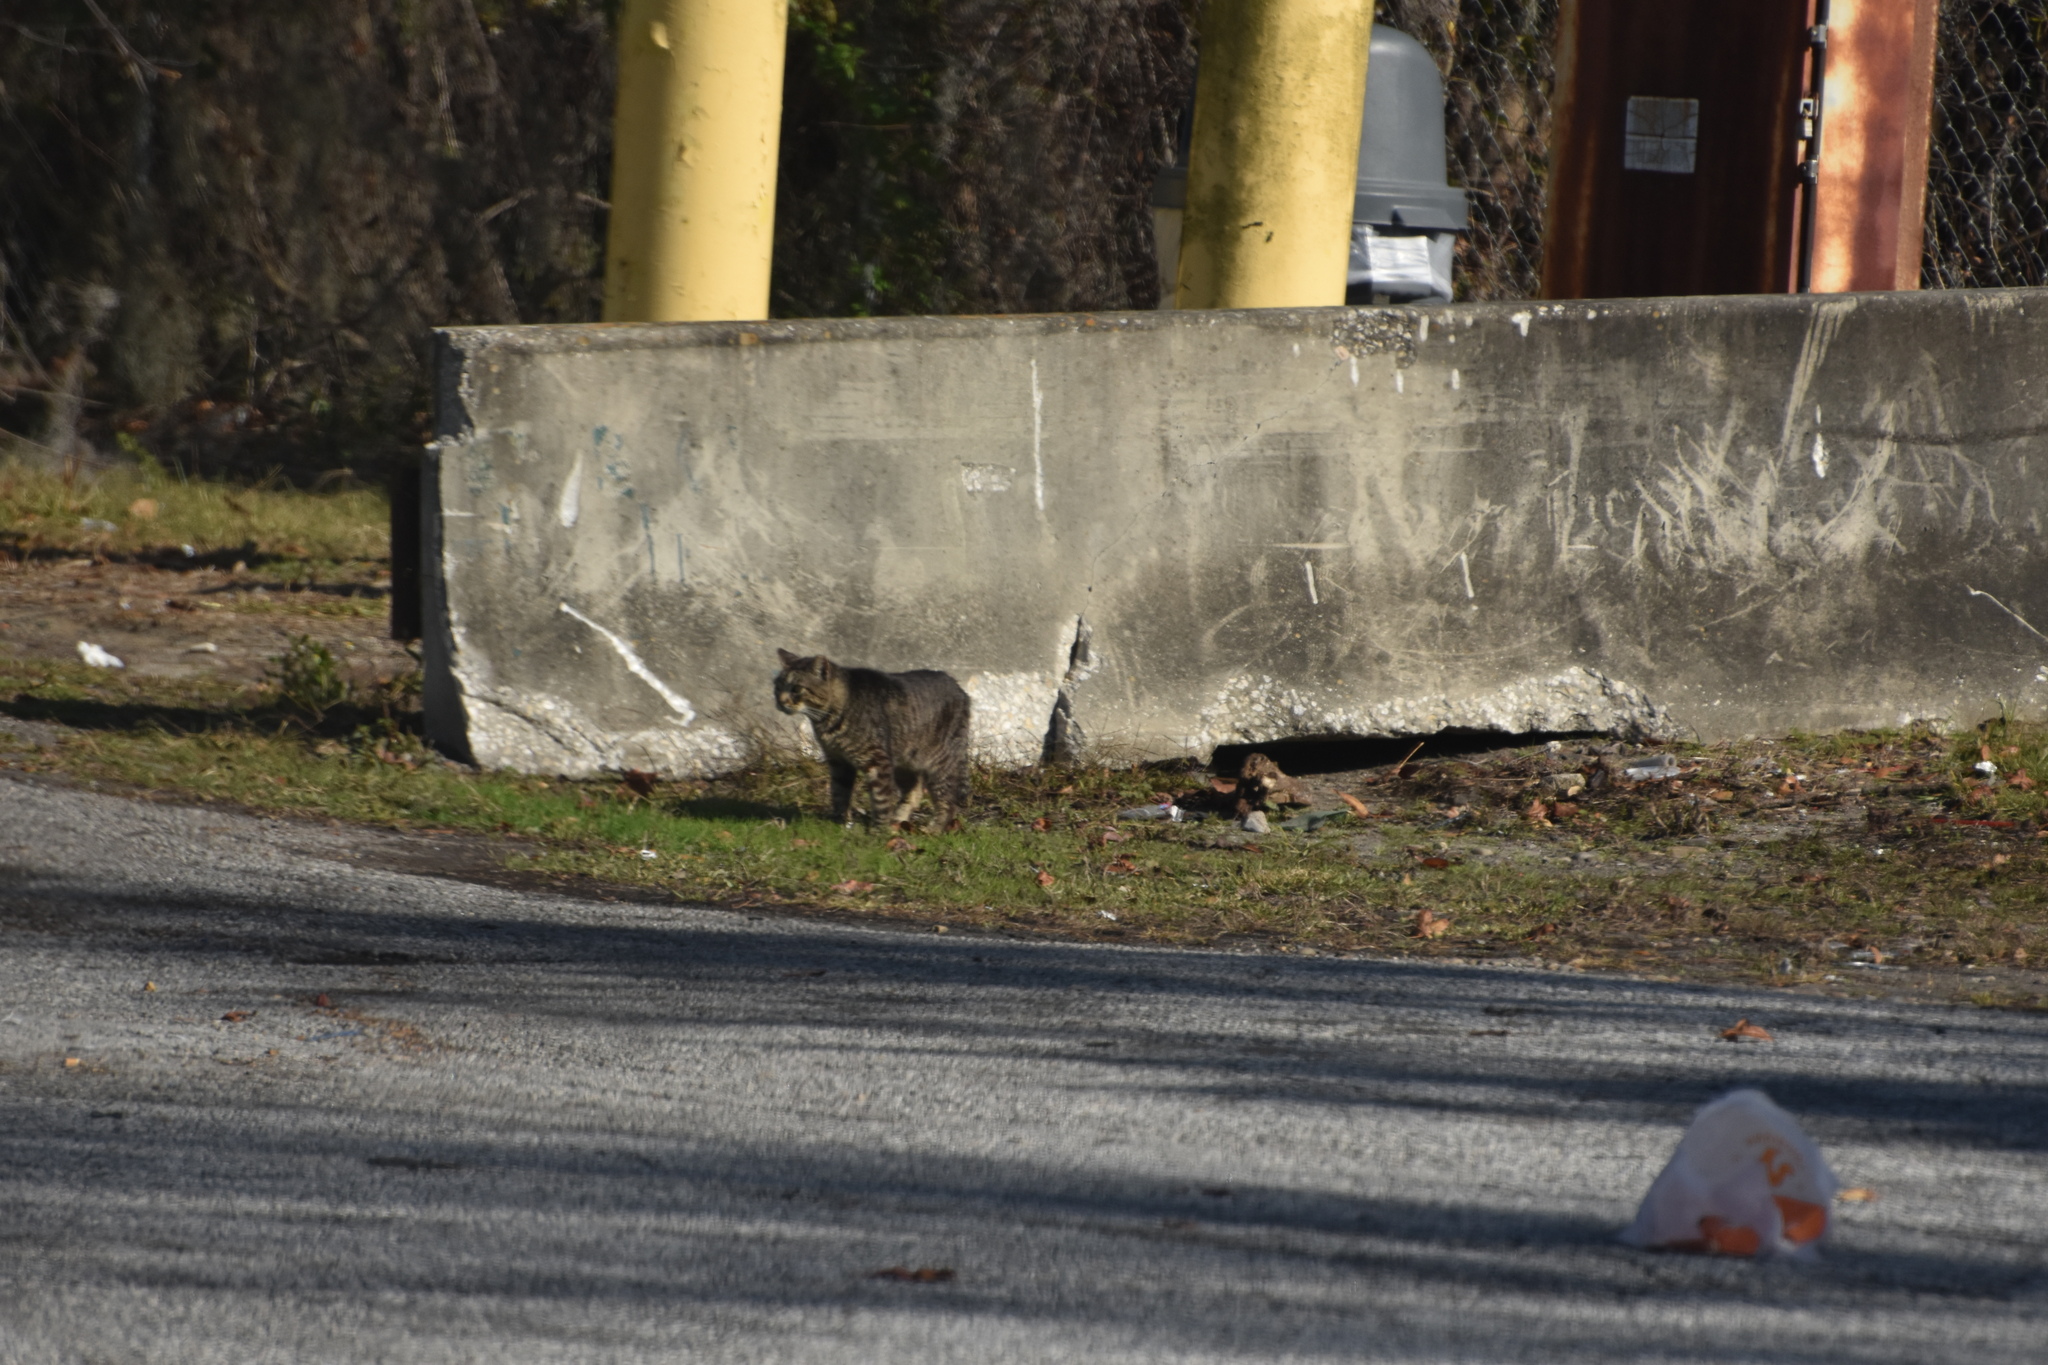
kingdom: Animalia
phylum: Chordata
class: Mammalia
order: Carnivora
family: Felidae
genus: Felis
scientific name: Felis catus
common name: Domestic cat
